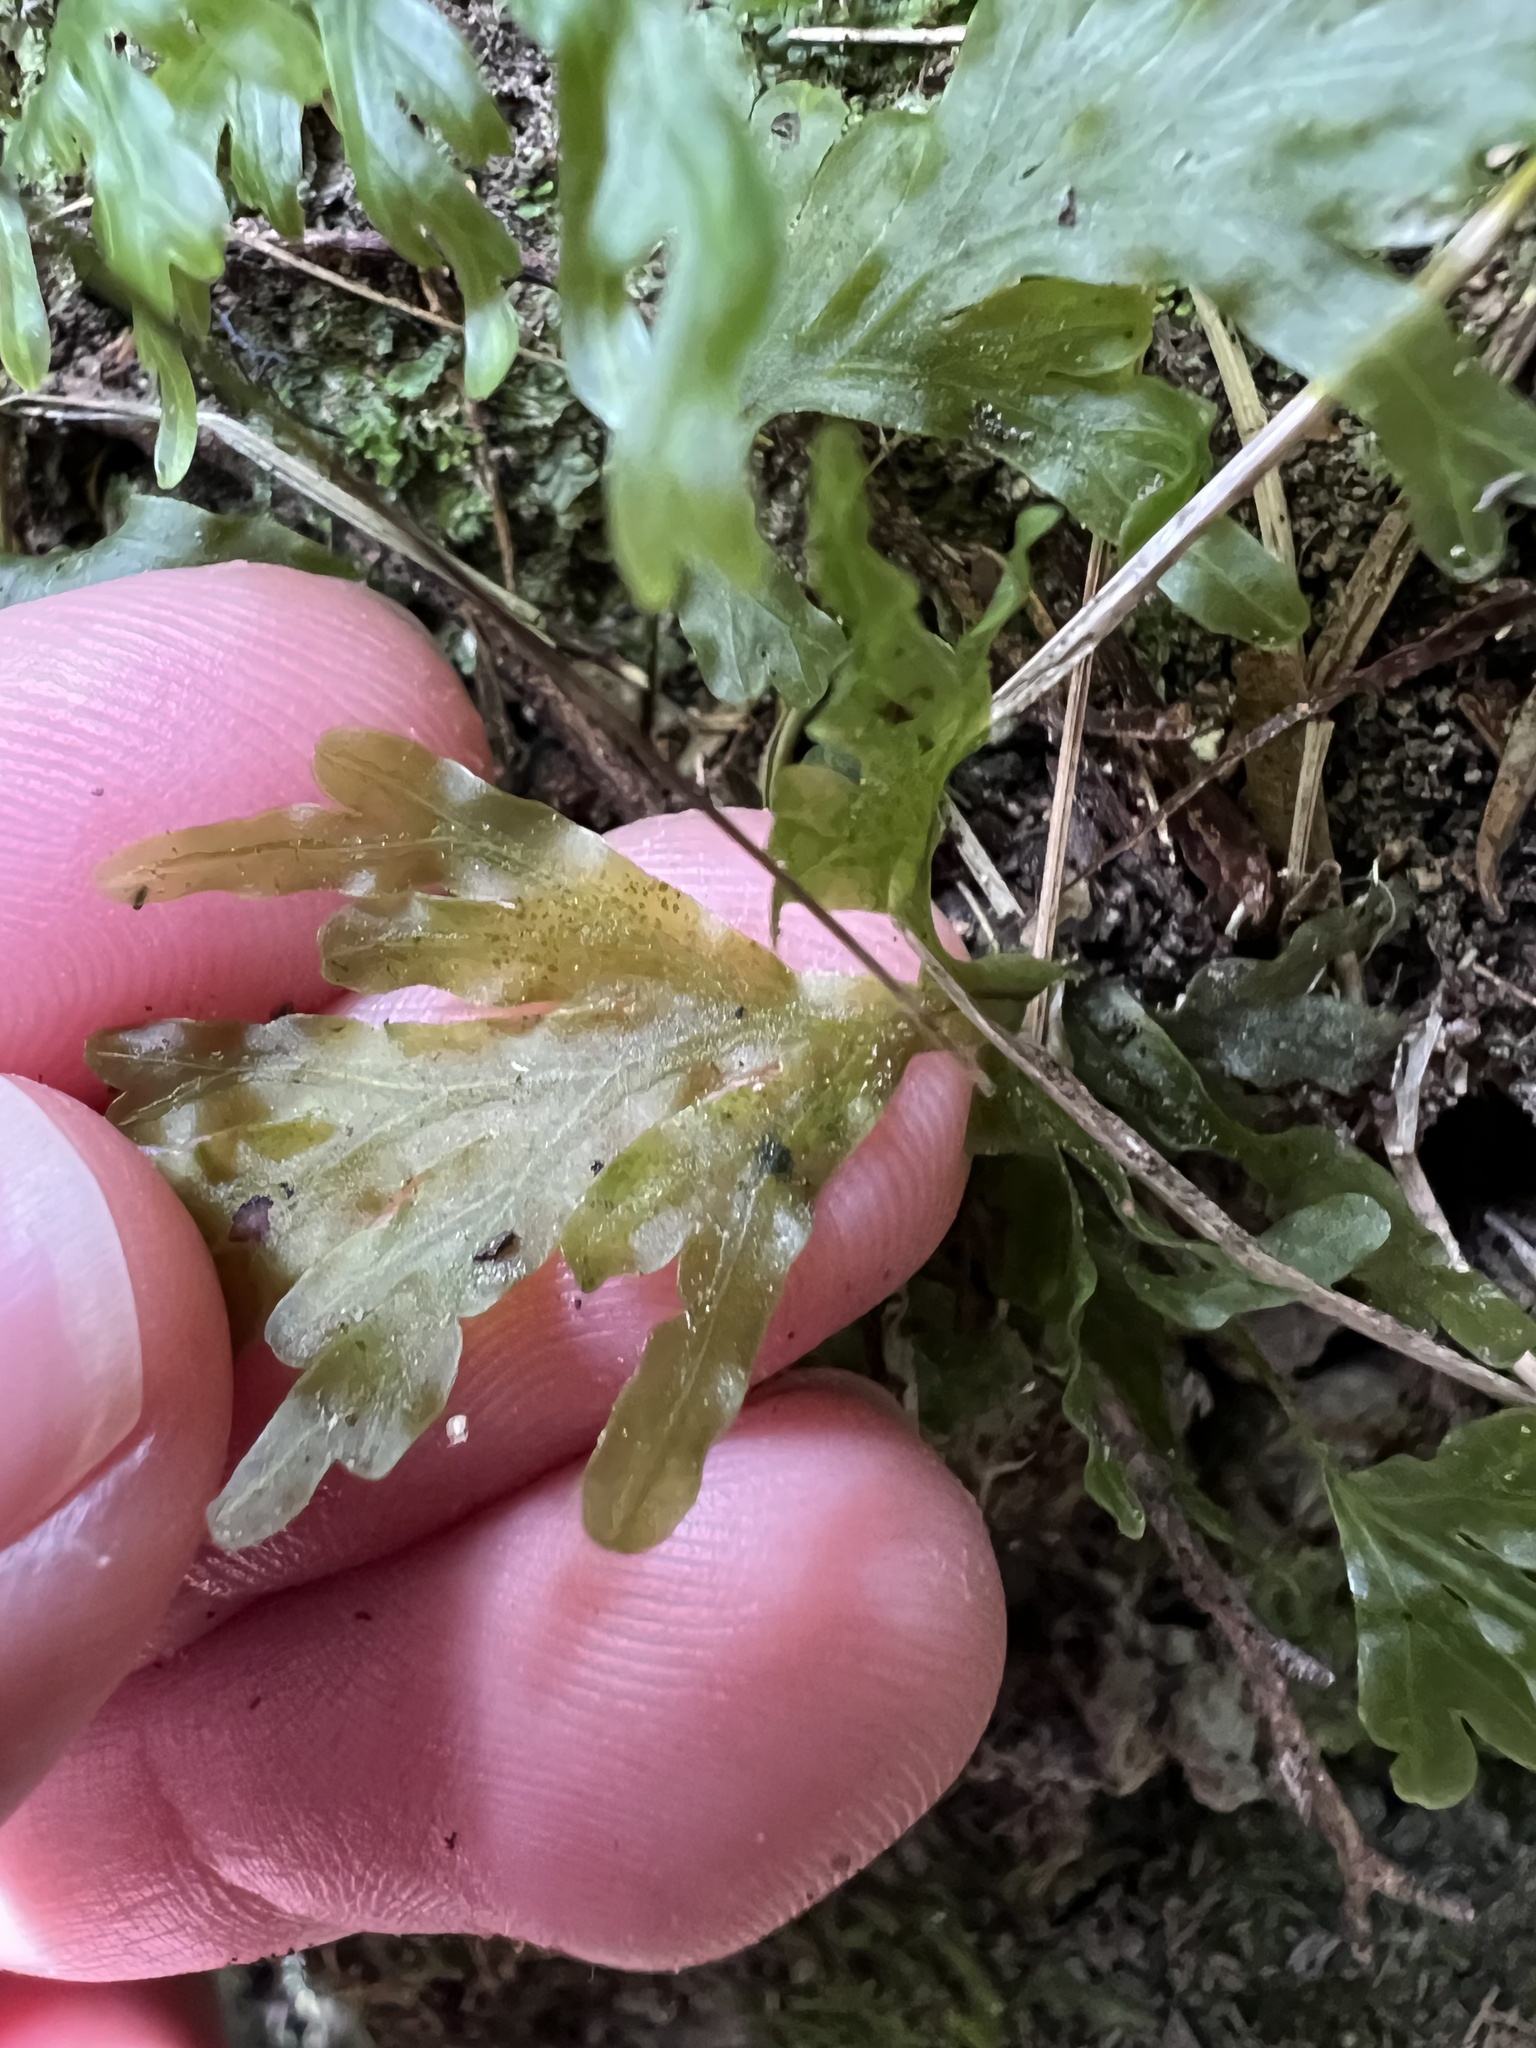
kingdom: Plantae
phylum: Tracheophyta
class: Polypodiopsida
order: Hymenophyllales
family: Hymenophyllaceae
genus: Hymenophyllum
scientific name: Hymenophyllum dilatatum
